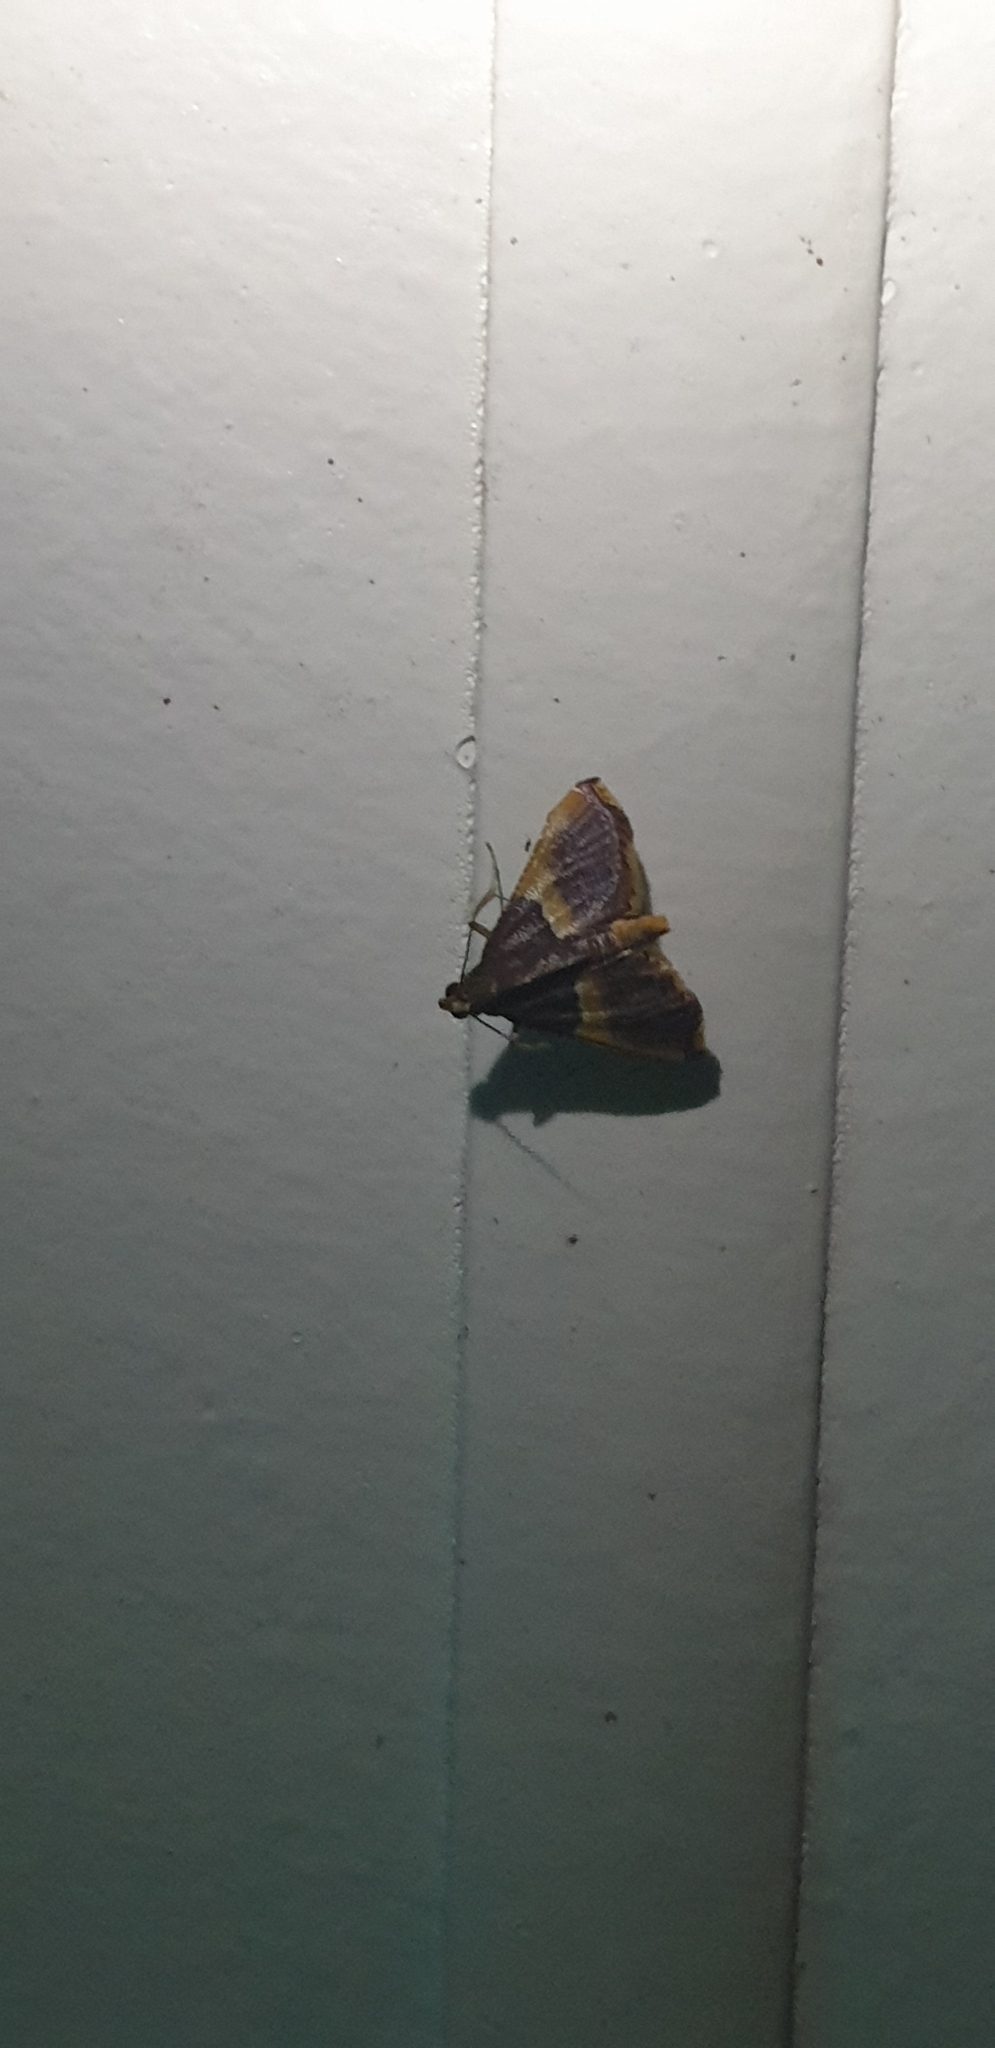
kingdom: Animalia
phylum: Arthropoda
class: Insecta
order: Lepidoptera
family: Pyralidae
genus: Endotricha
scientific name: Endotricha mesenterialis
